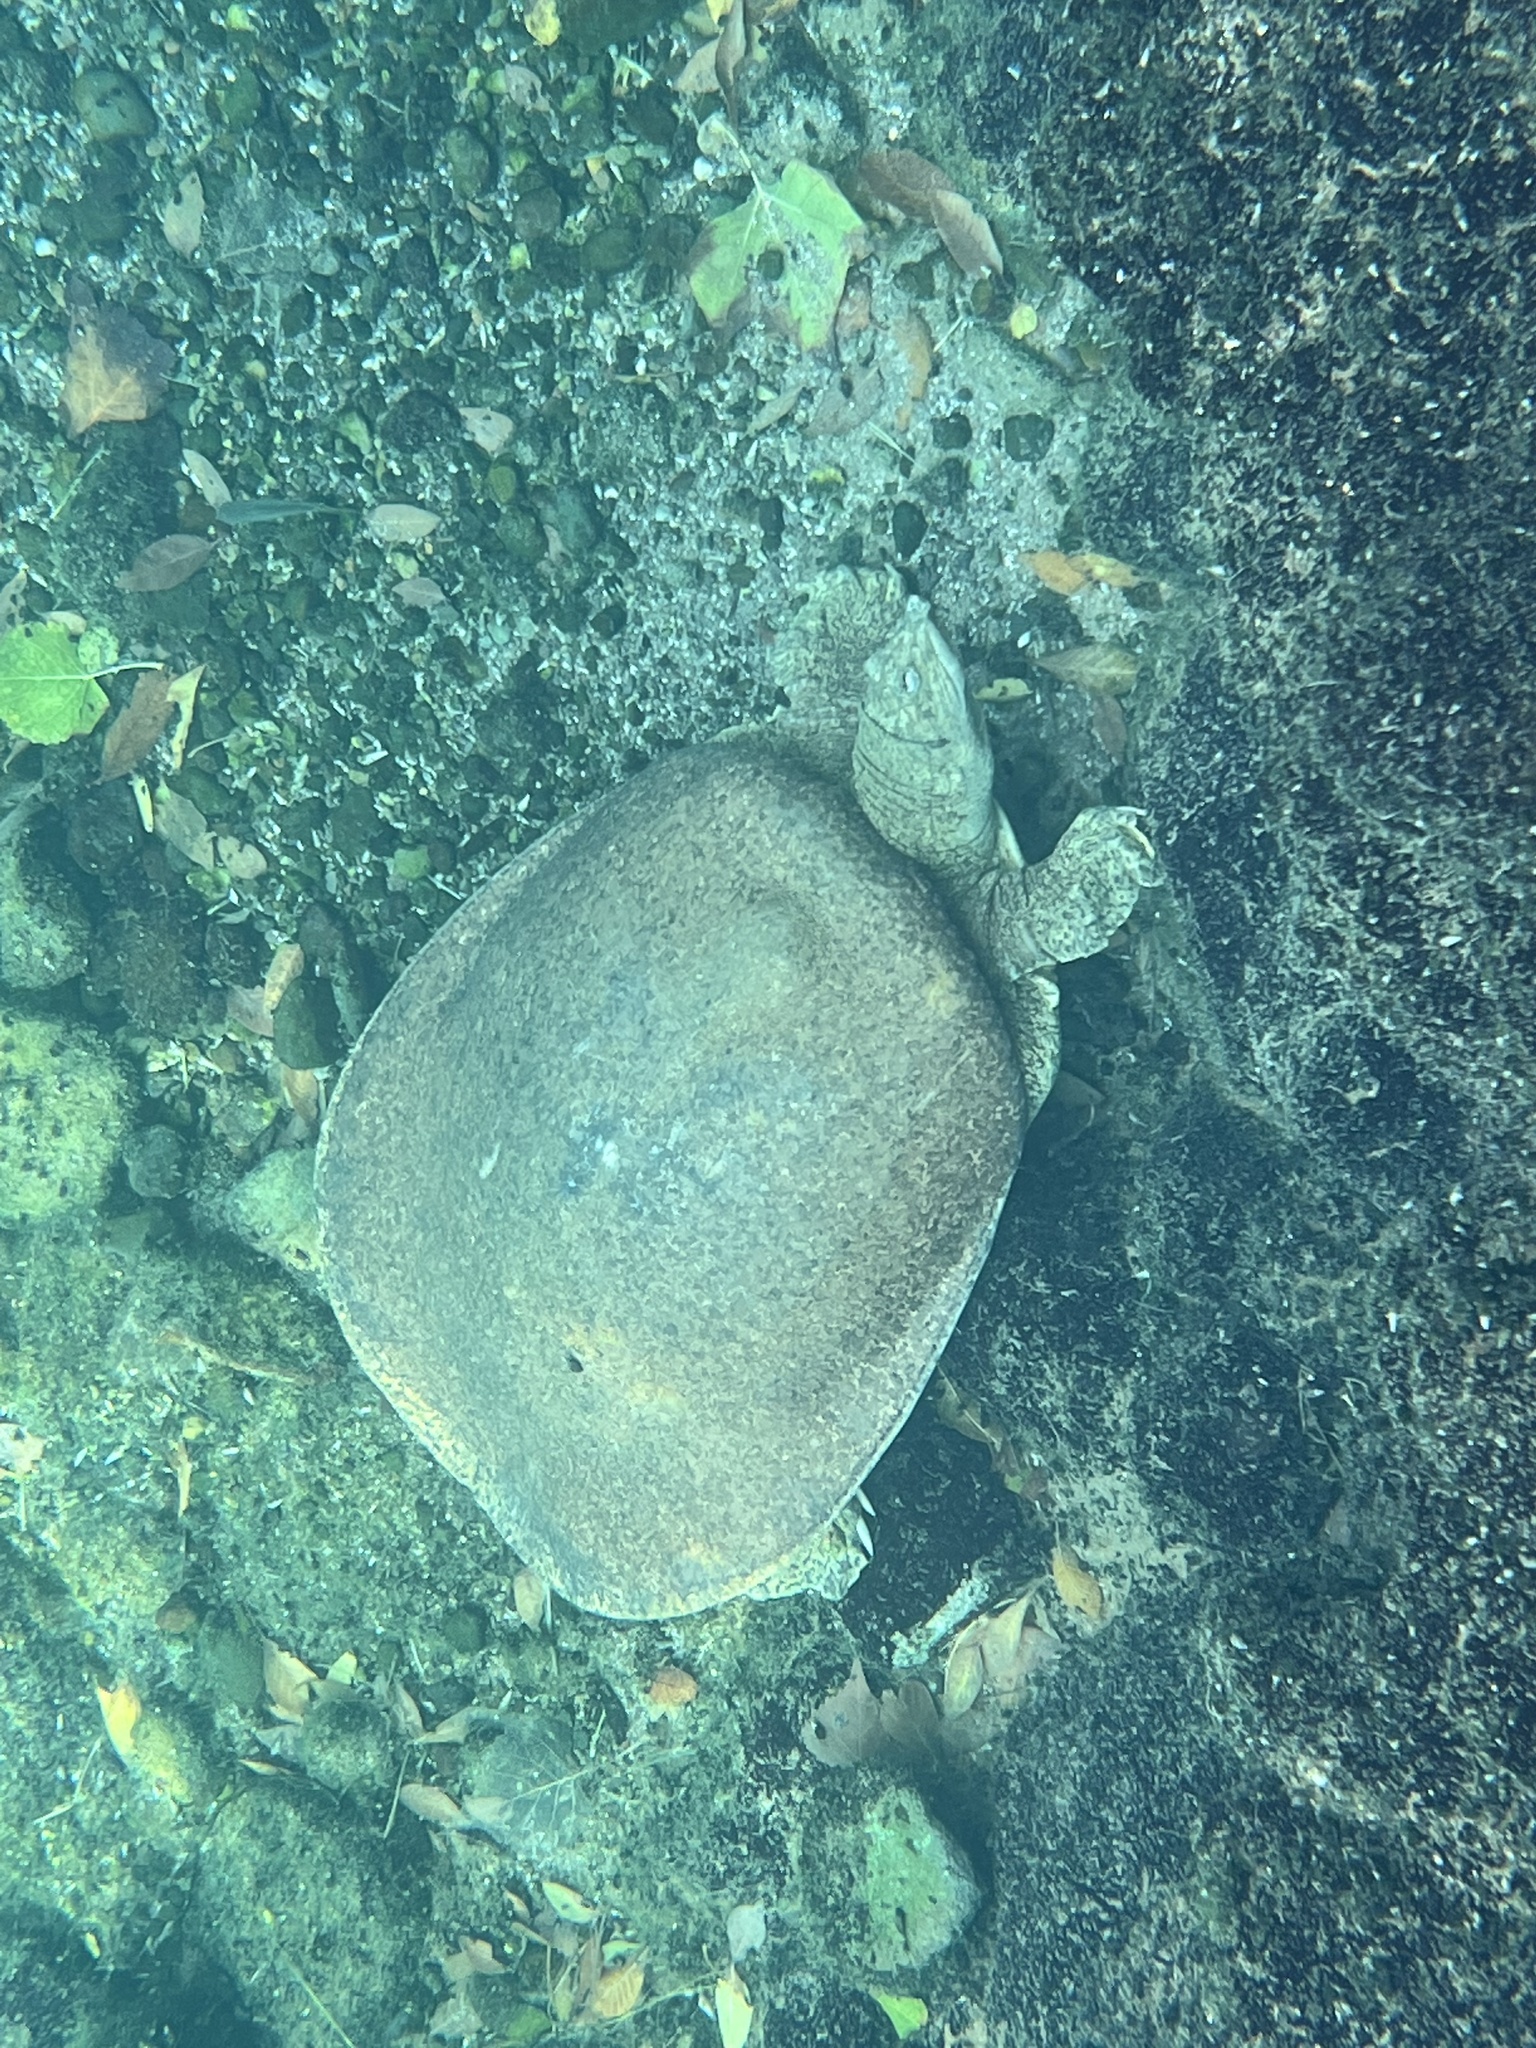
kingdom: Animalia
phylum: Chordata
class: Testudines
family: Trionychidae
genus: Apalone
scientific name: Apalone spinifera
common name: Spiny softshell turtle
